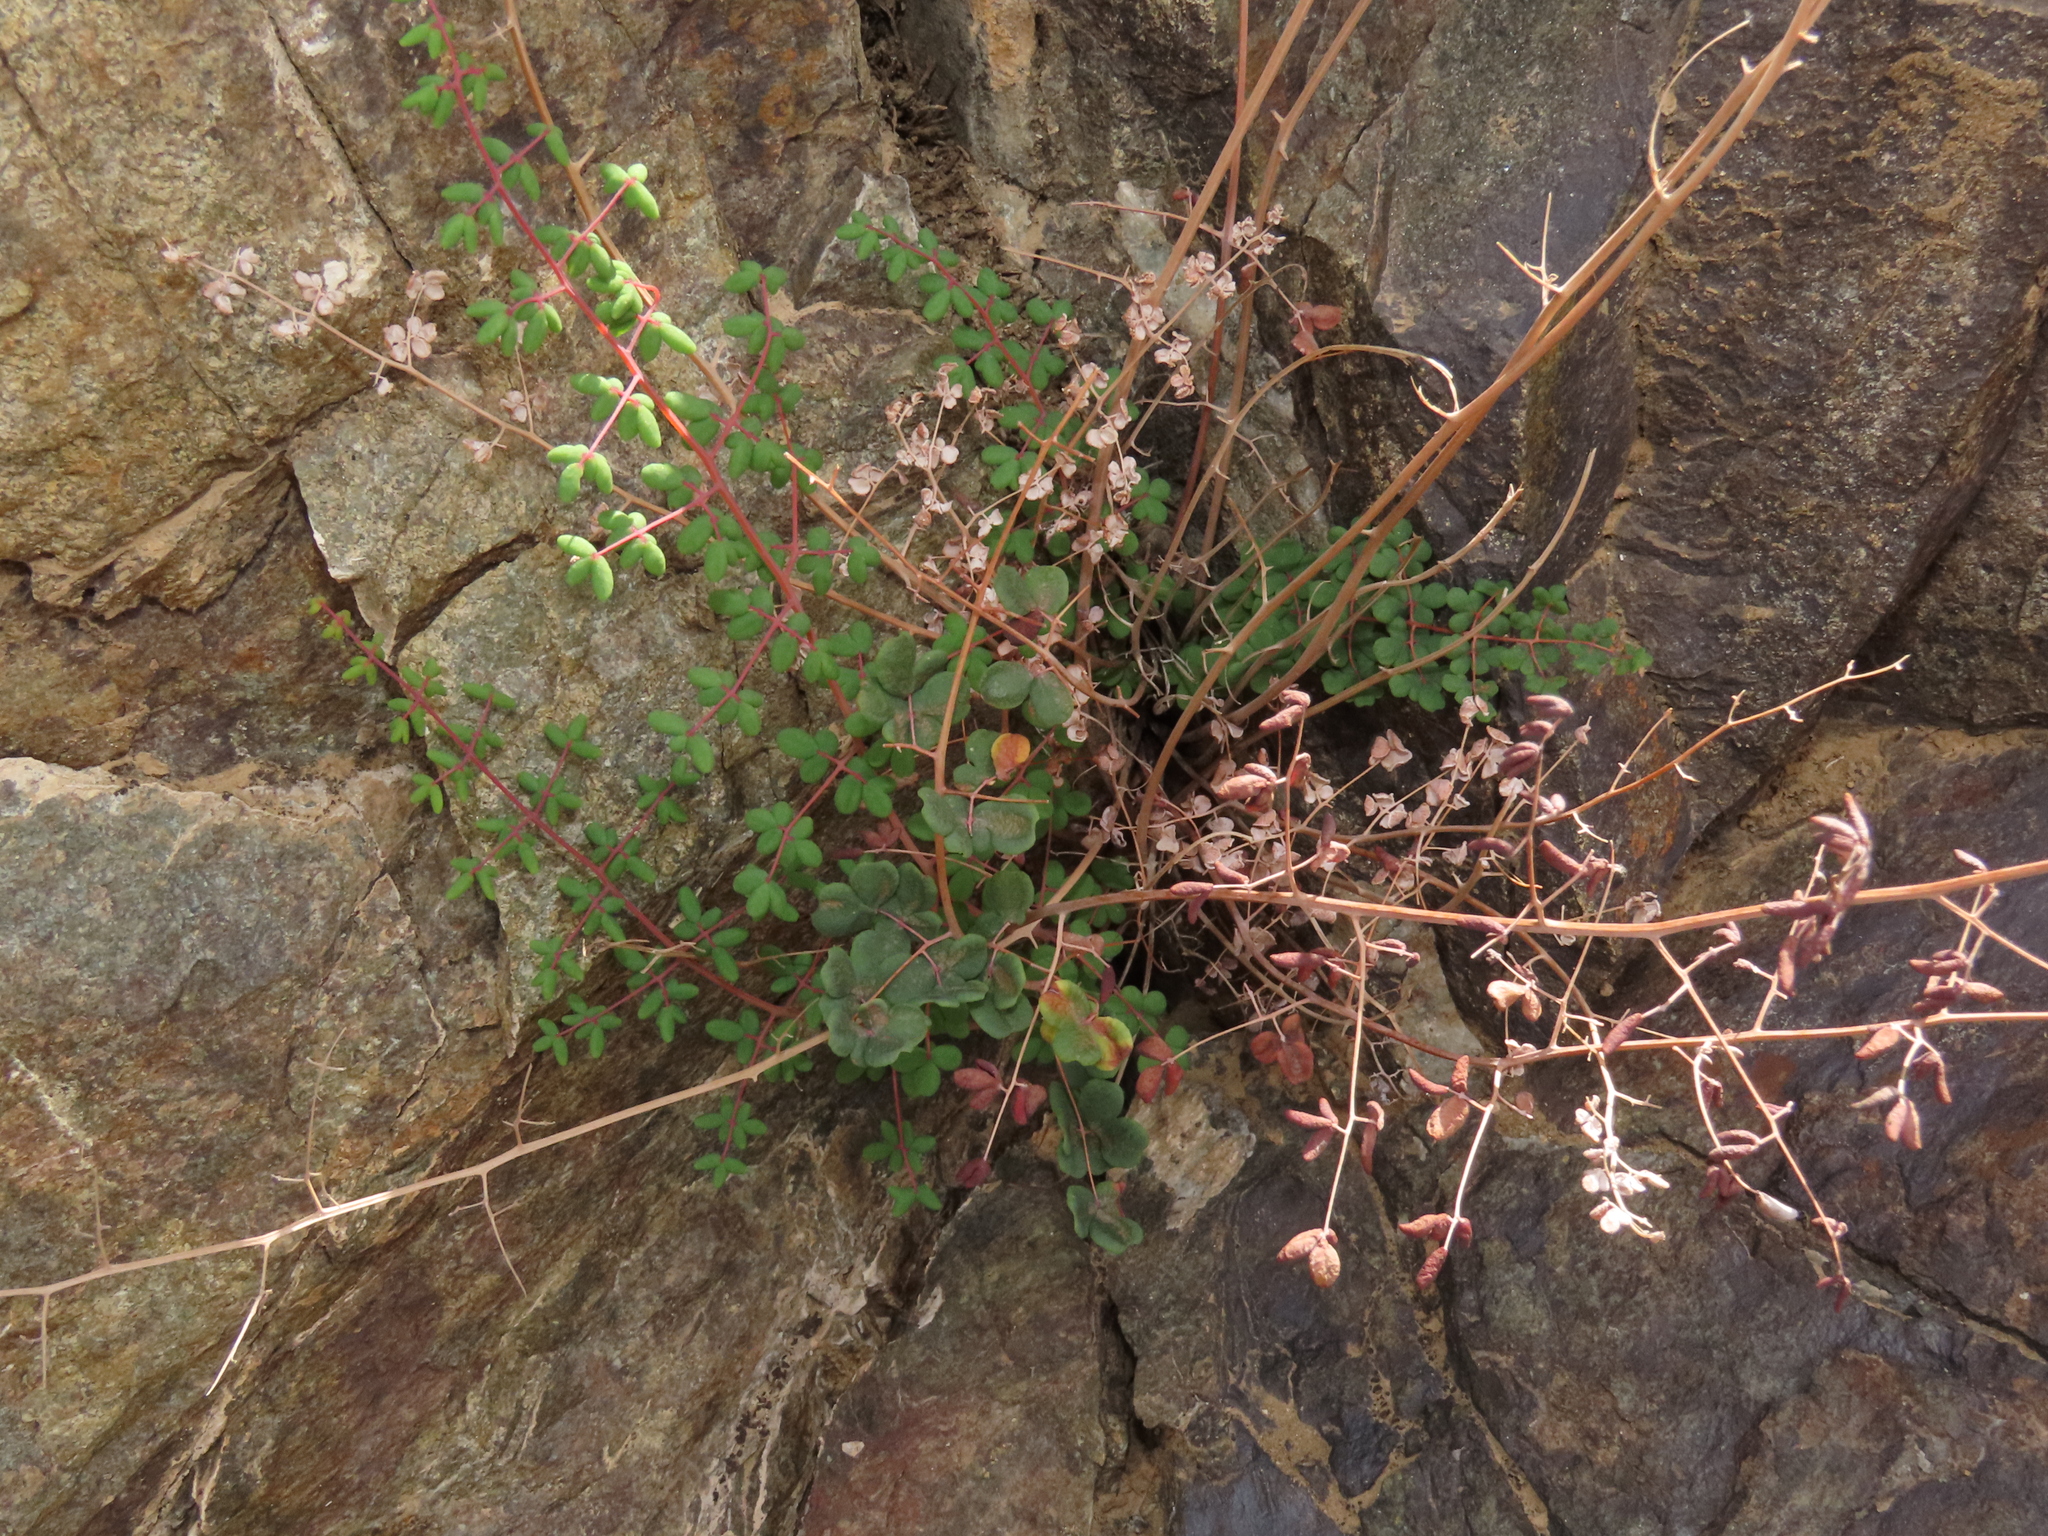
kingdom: Plantae
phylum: Tracheophyta
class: Polypodiopsida
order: Polypodiales
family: Pteridaceae
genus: Pellaea
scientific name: Pellaea myrtillifolia
